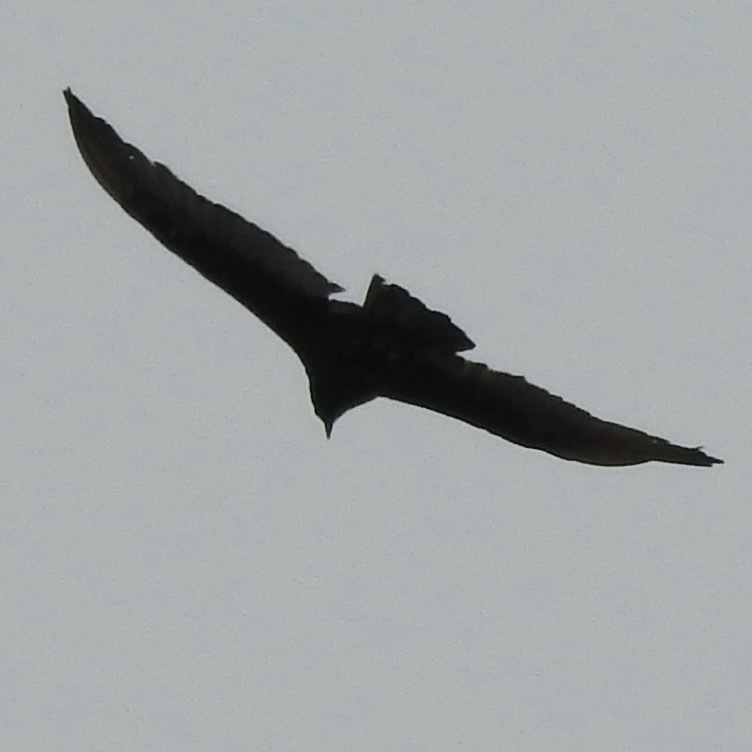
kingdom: Animalia
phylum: Chordata
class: Aves
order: Accipitriformes
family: Cathartidae
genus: Cathartes
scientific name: Cathartes aura
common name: Turkey vulture
